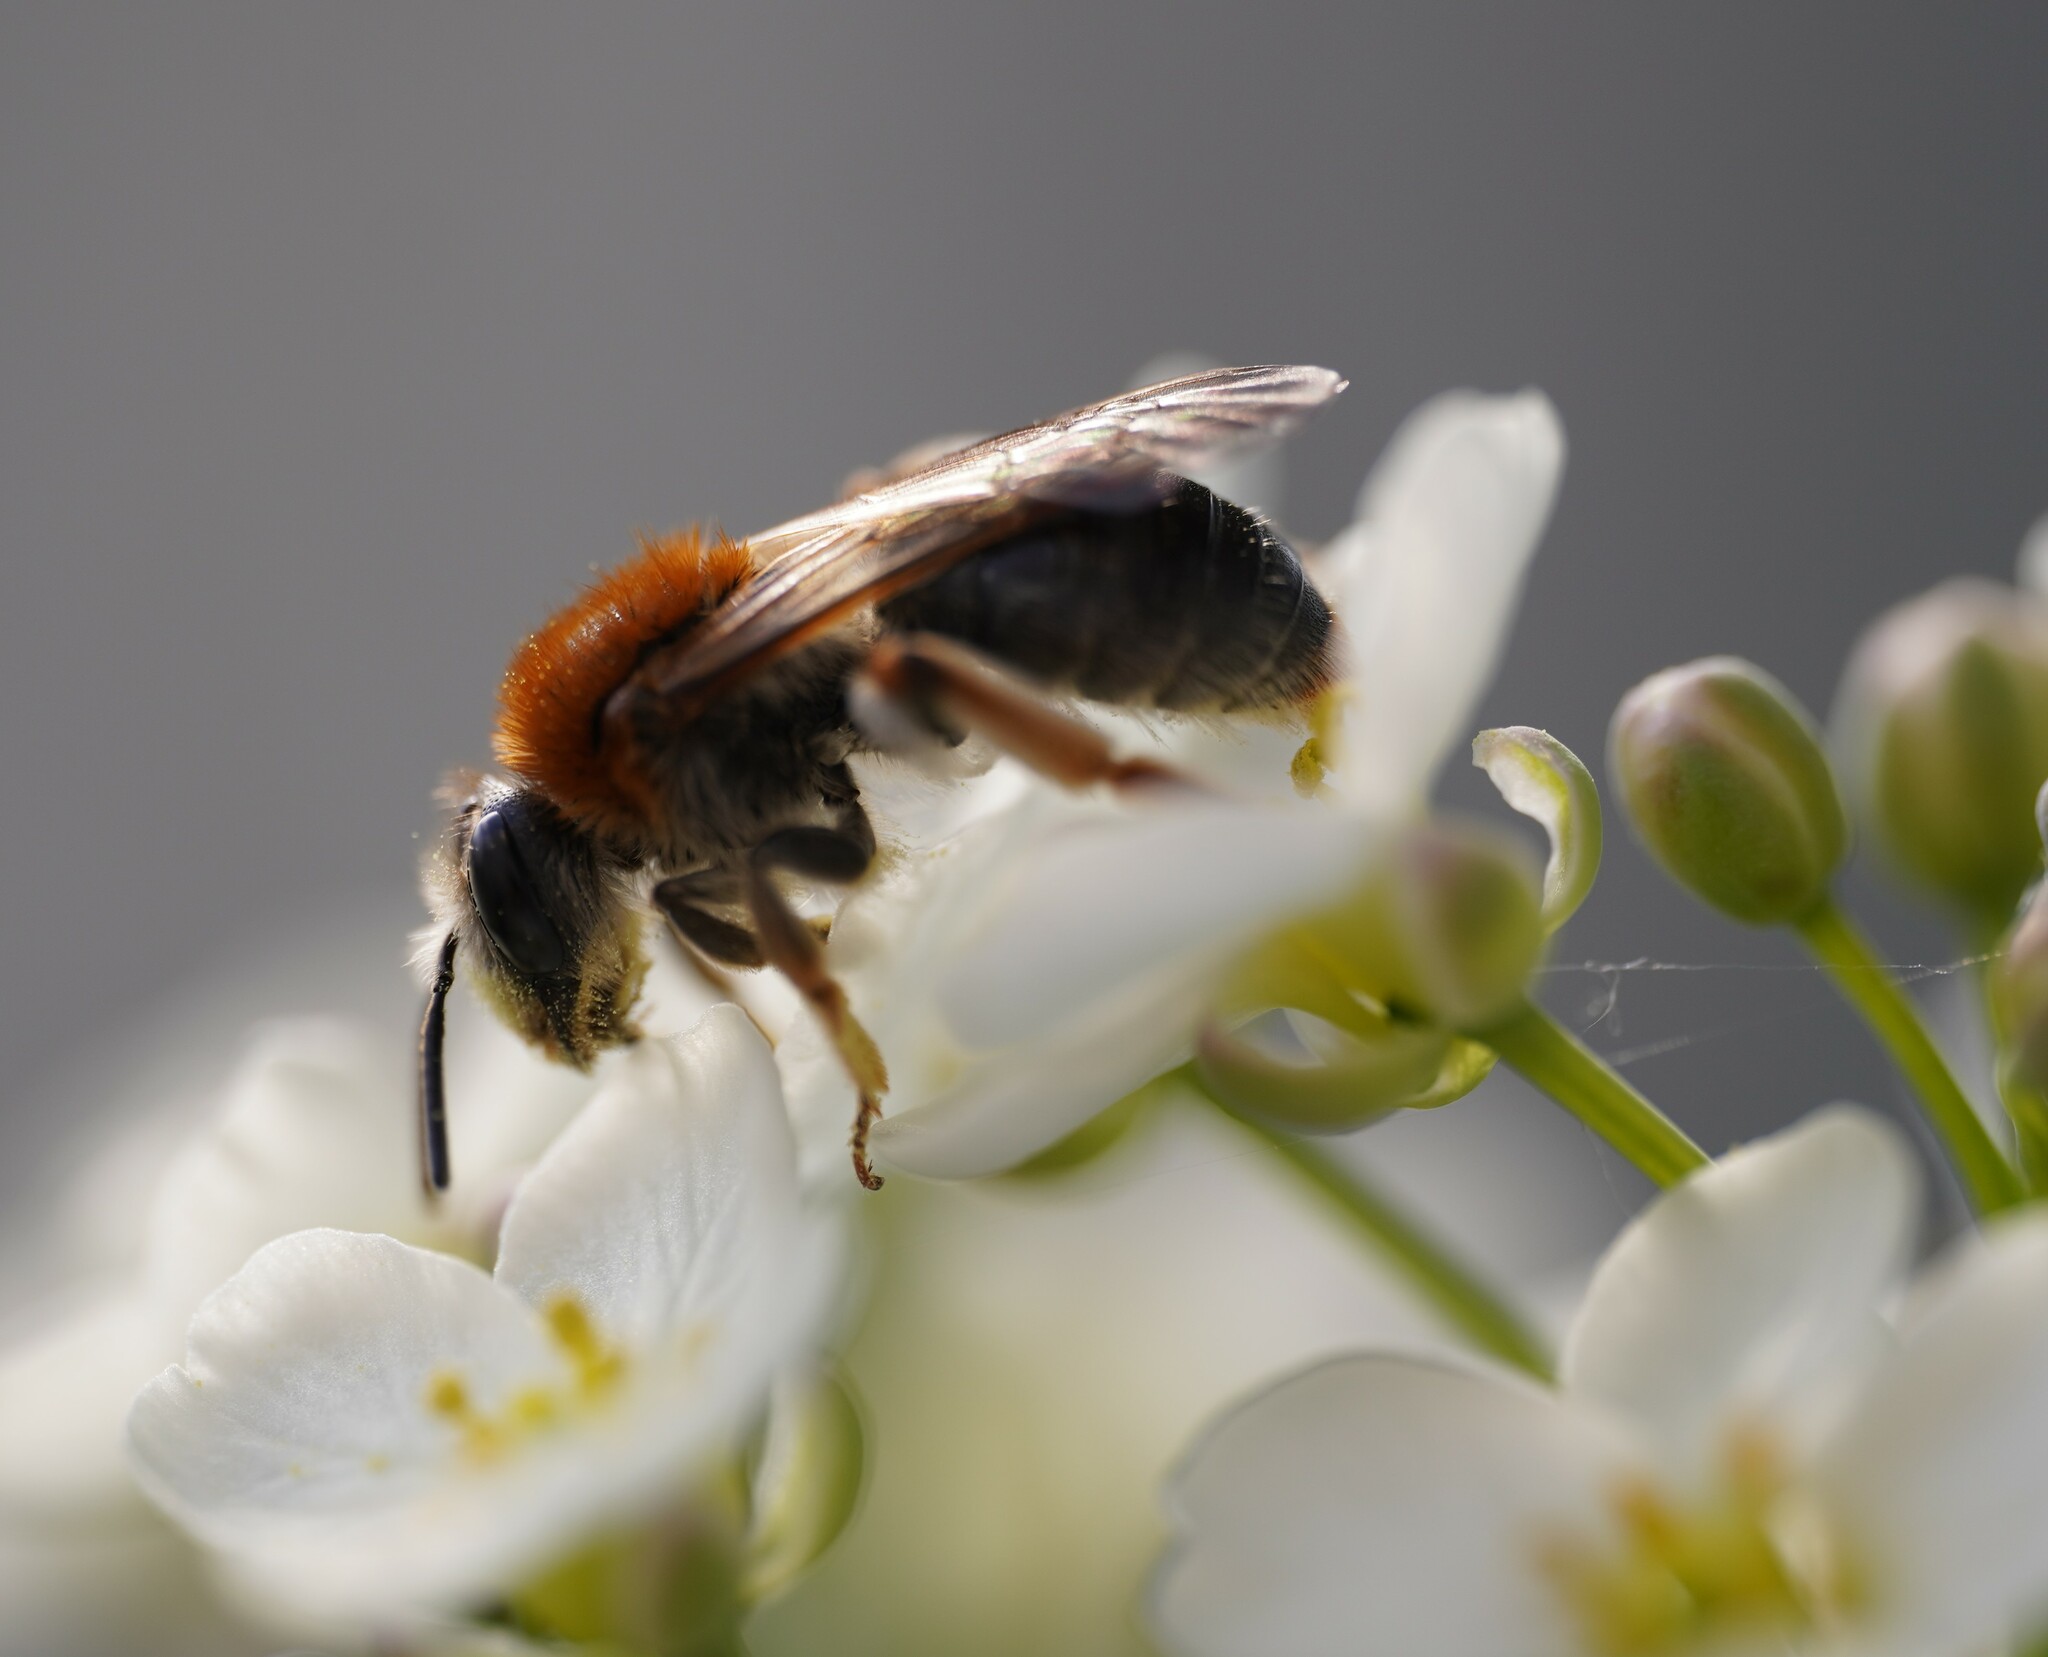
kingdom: Animalia
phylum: Arthropoda
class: Insecta
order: Hymenoptera
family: Andrenidae
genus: Andrena
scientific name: Andrena haemorrhoa
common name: Early mining bee
